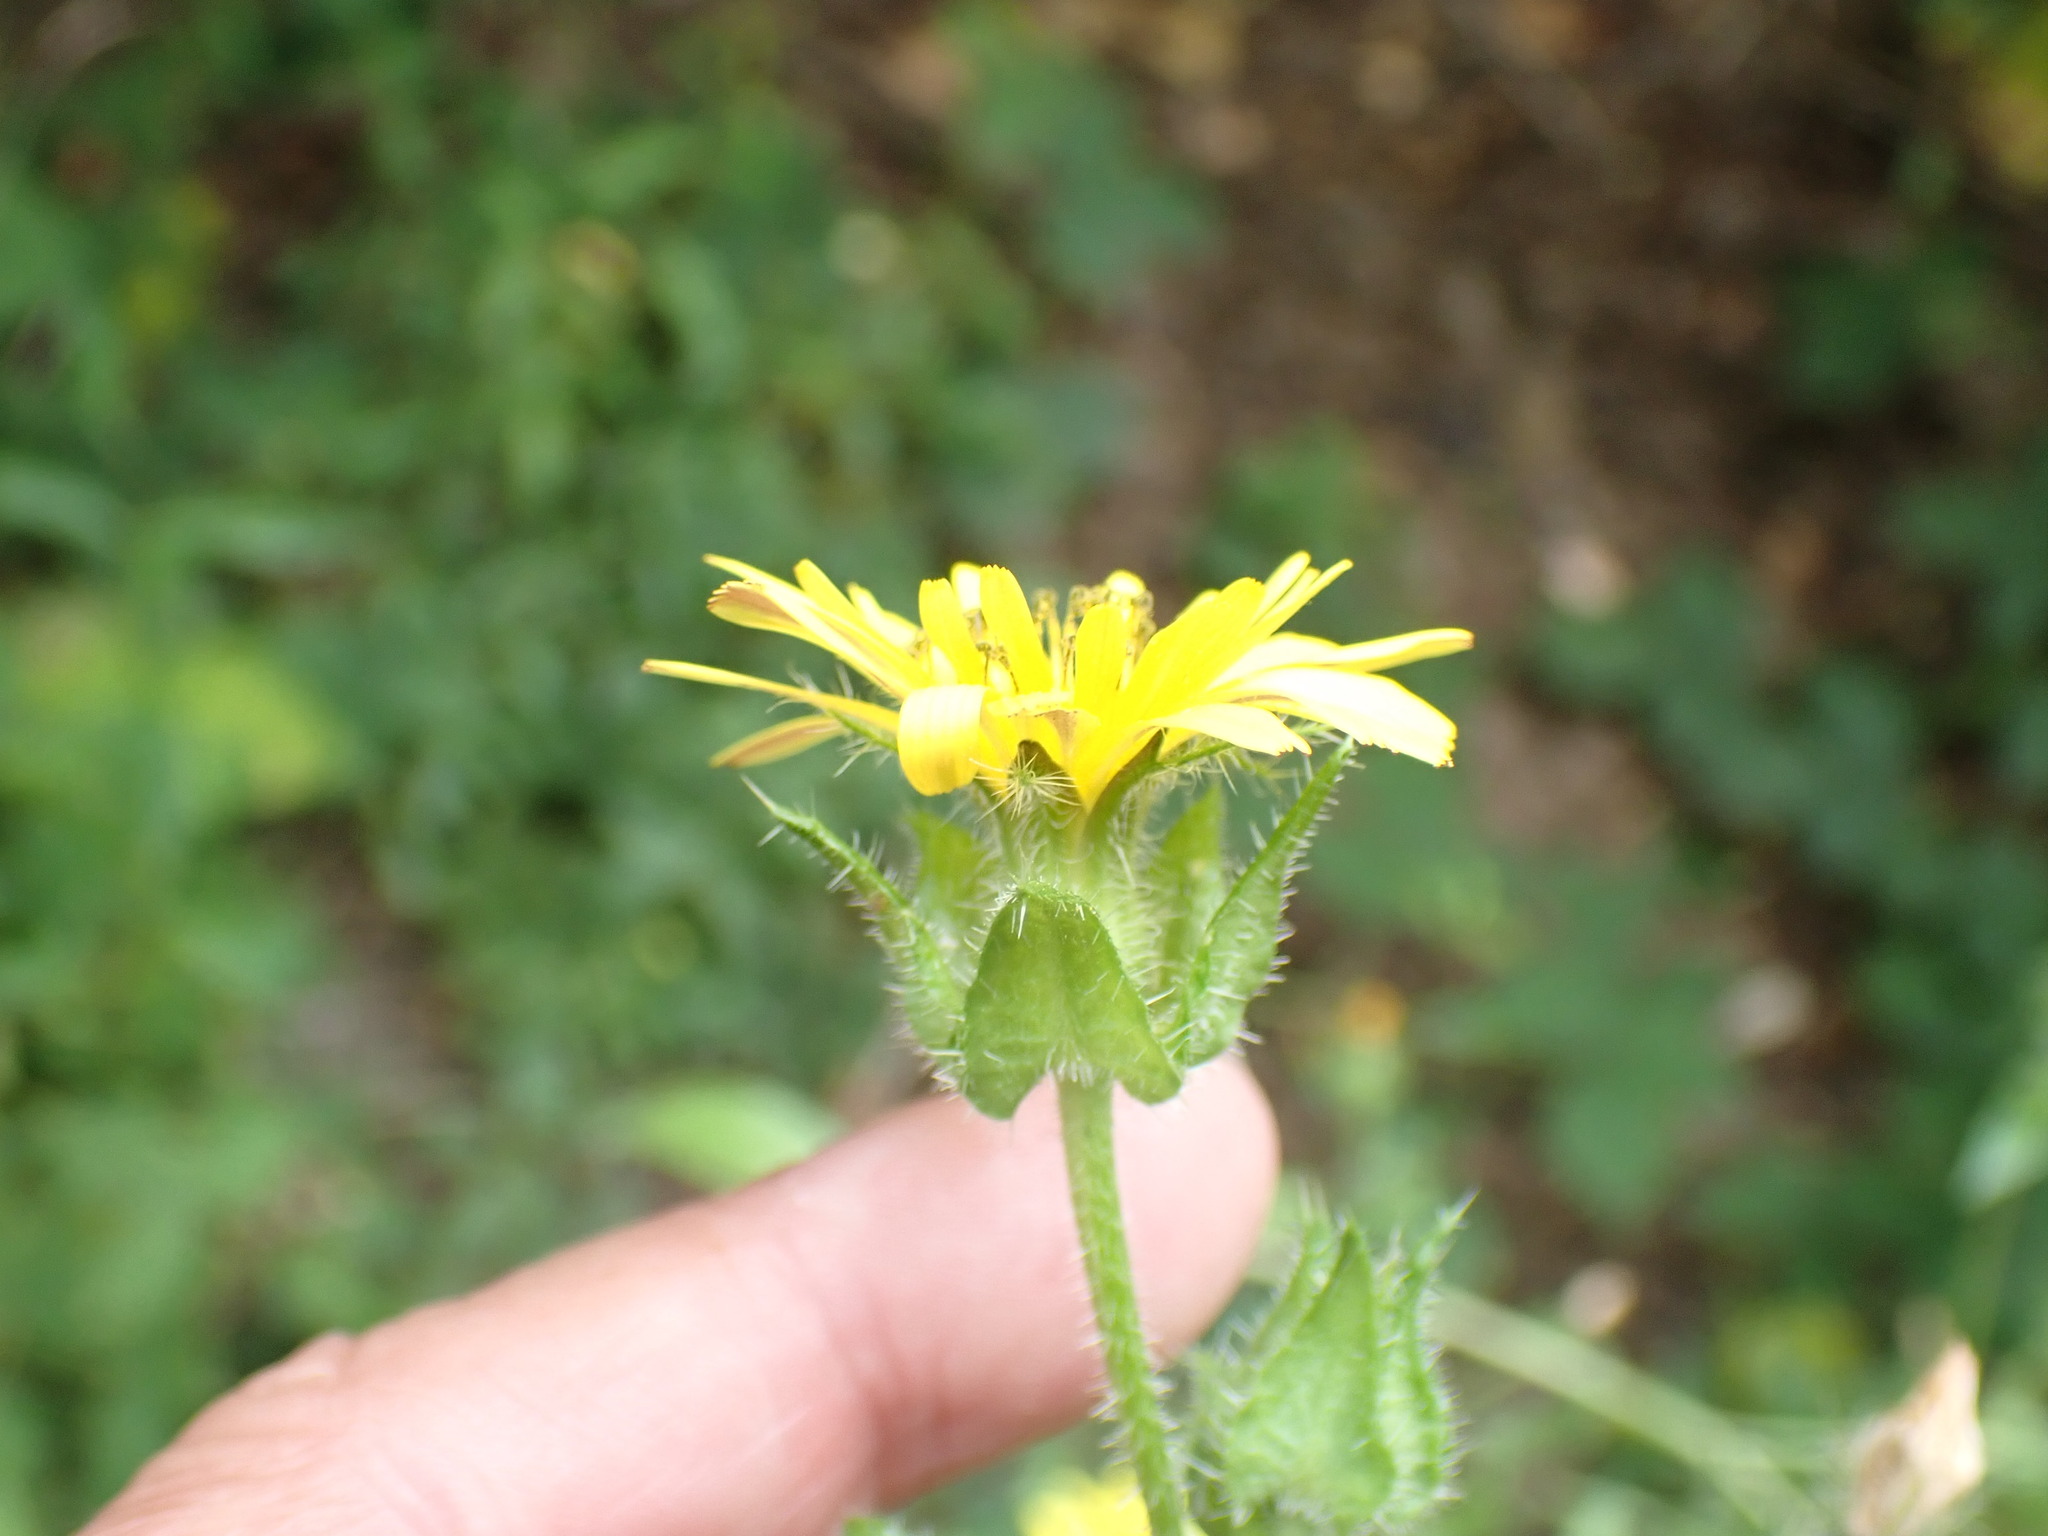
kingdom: Plantae
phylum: Tracheophyta
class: Magnoliopsida
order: Asterales
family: Asteraceae
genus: Helminthotheca
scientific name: Helminthotheca echioides
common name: Ox-tongue
